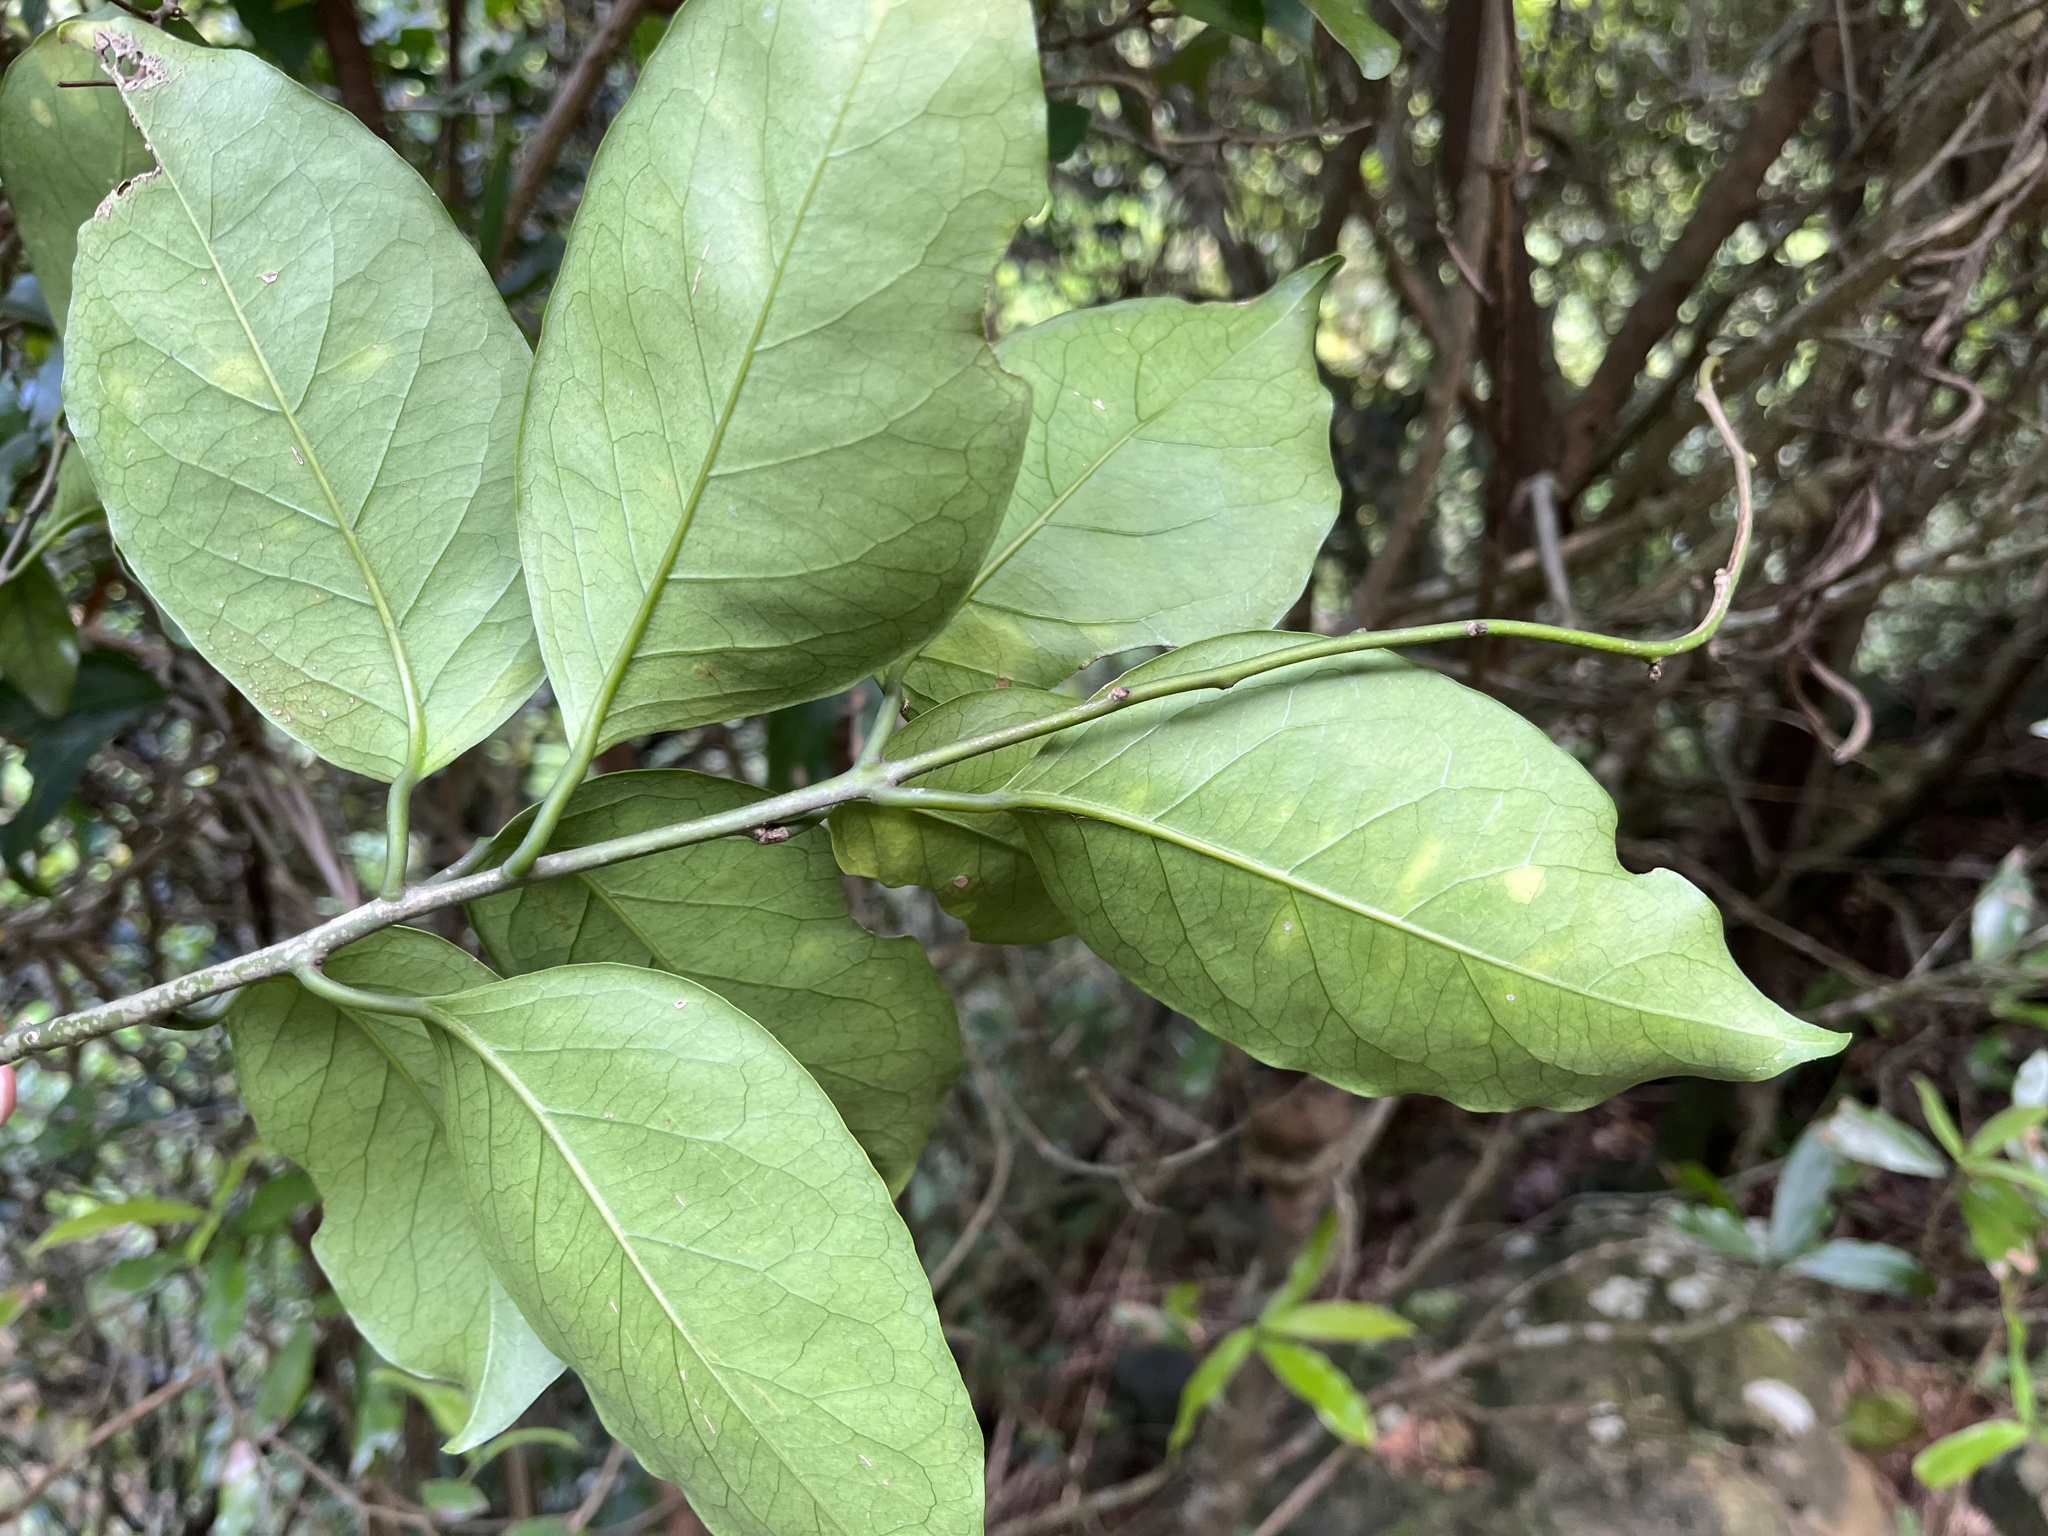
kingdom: Plantae
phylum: Tracheophyta
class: Magnoliopsida
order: Solanales
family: Convolvulaceae
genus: Erycibe
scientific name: Erycibe henryi
